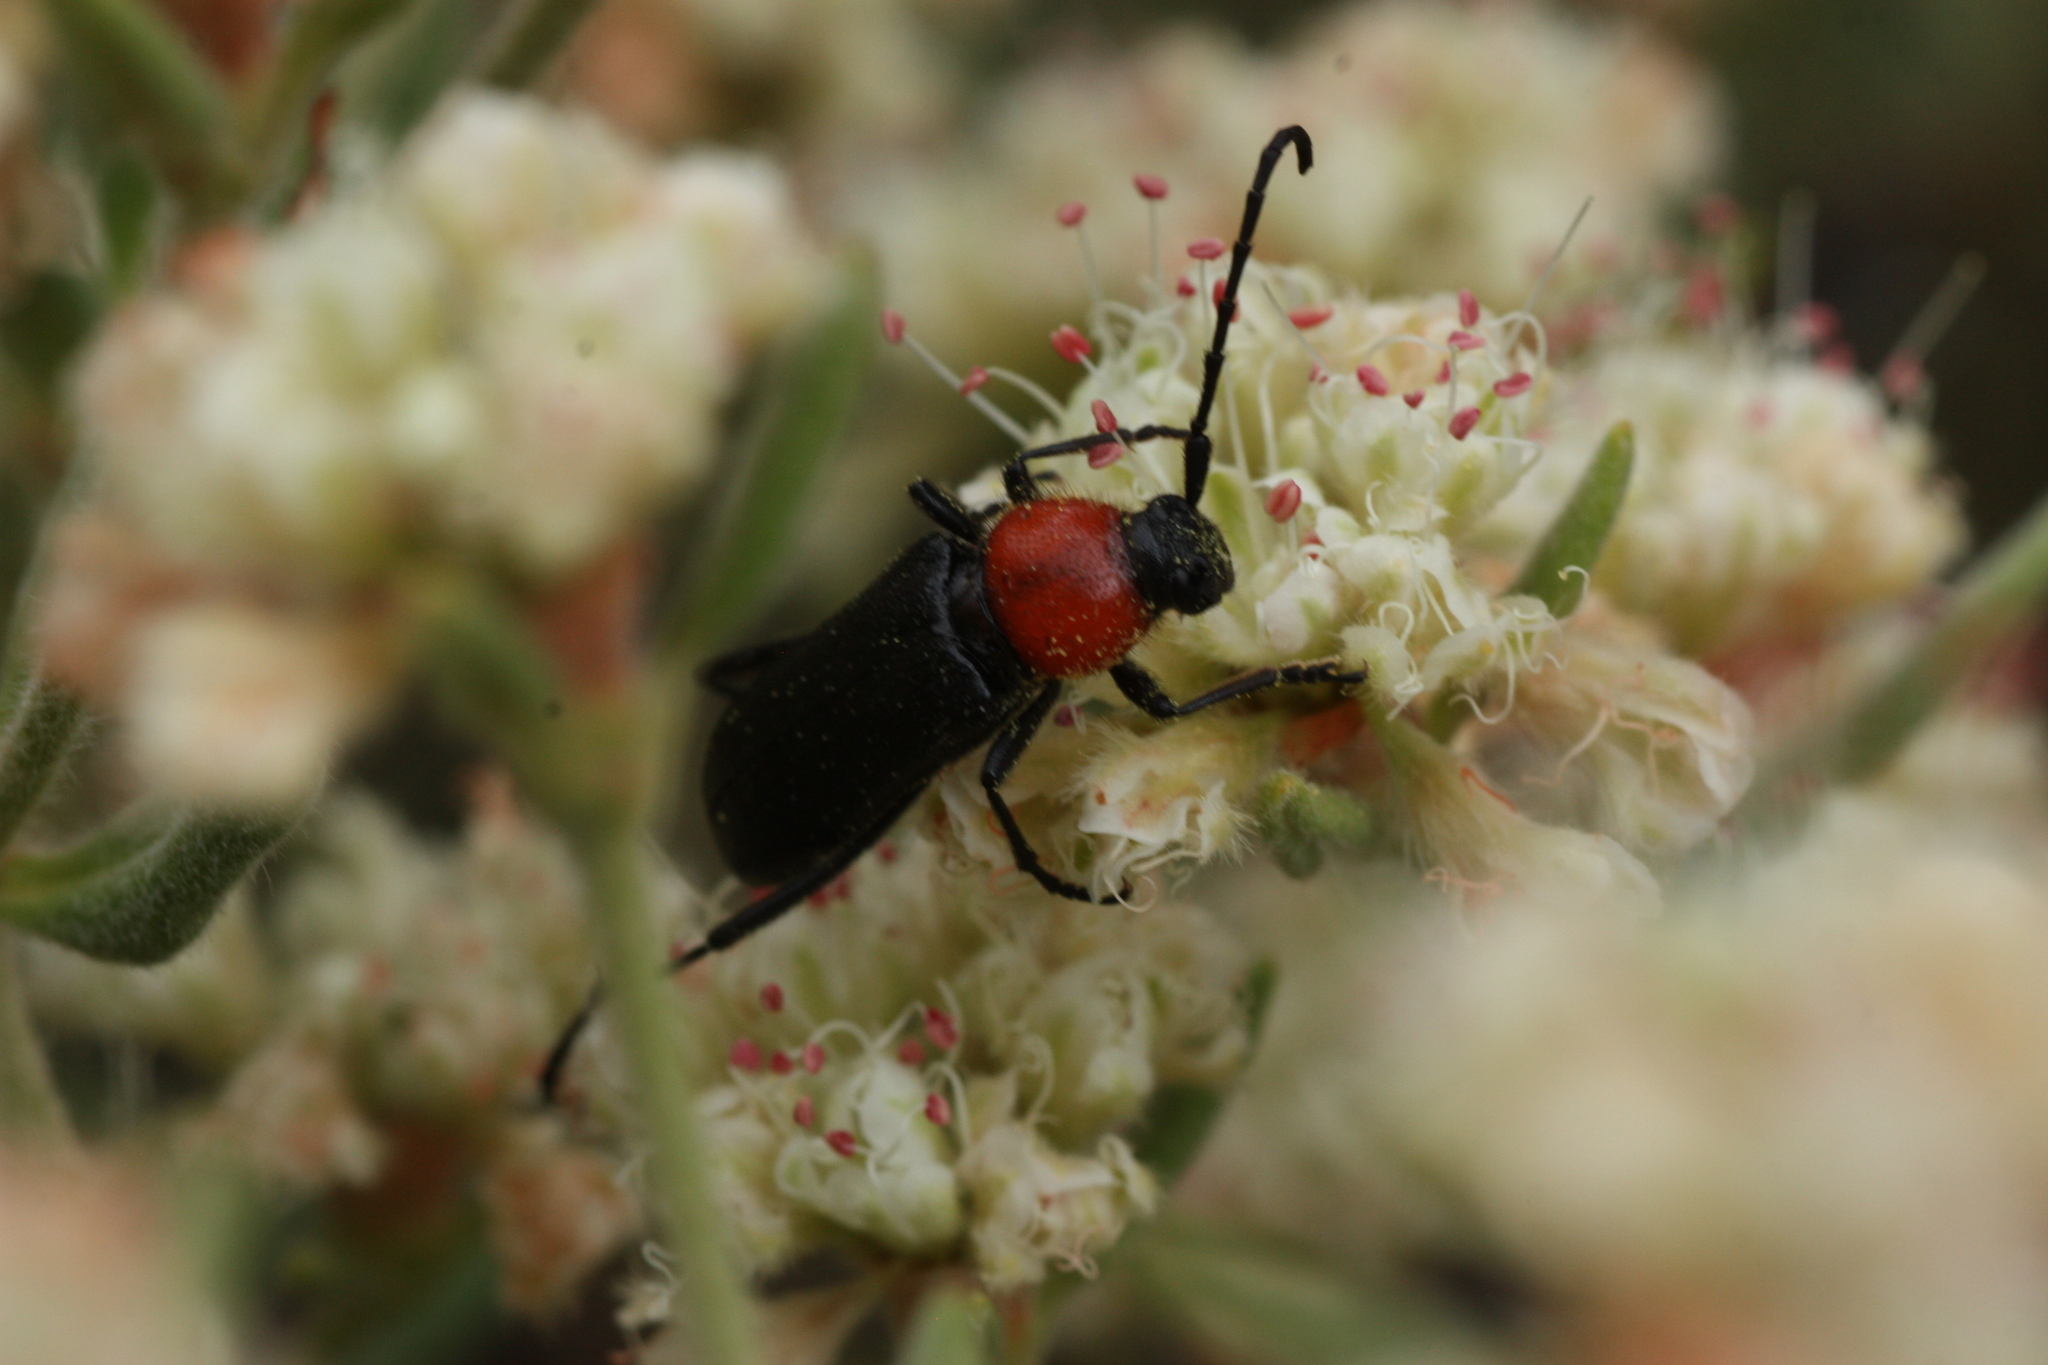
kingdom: Animalia
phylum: Arthropoda
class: Insecta
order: Coleoptera
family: Cerambycidae
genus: Batyle
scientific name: Batyle ignicollis
